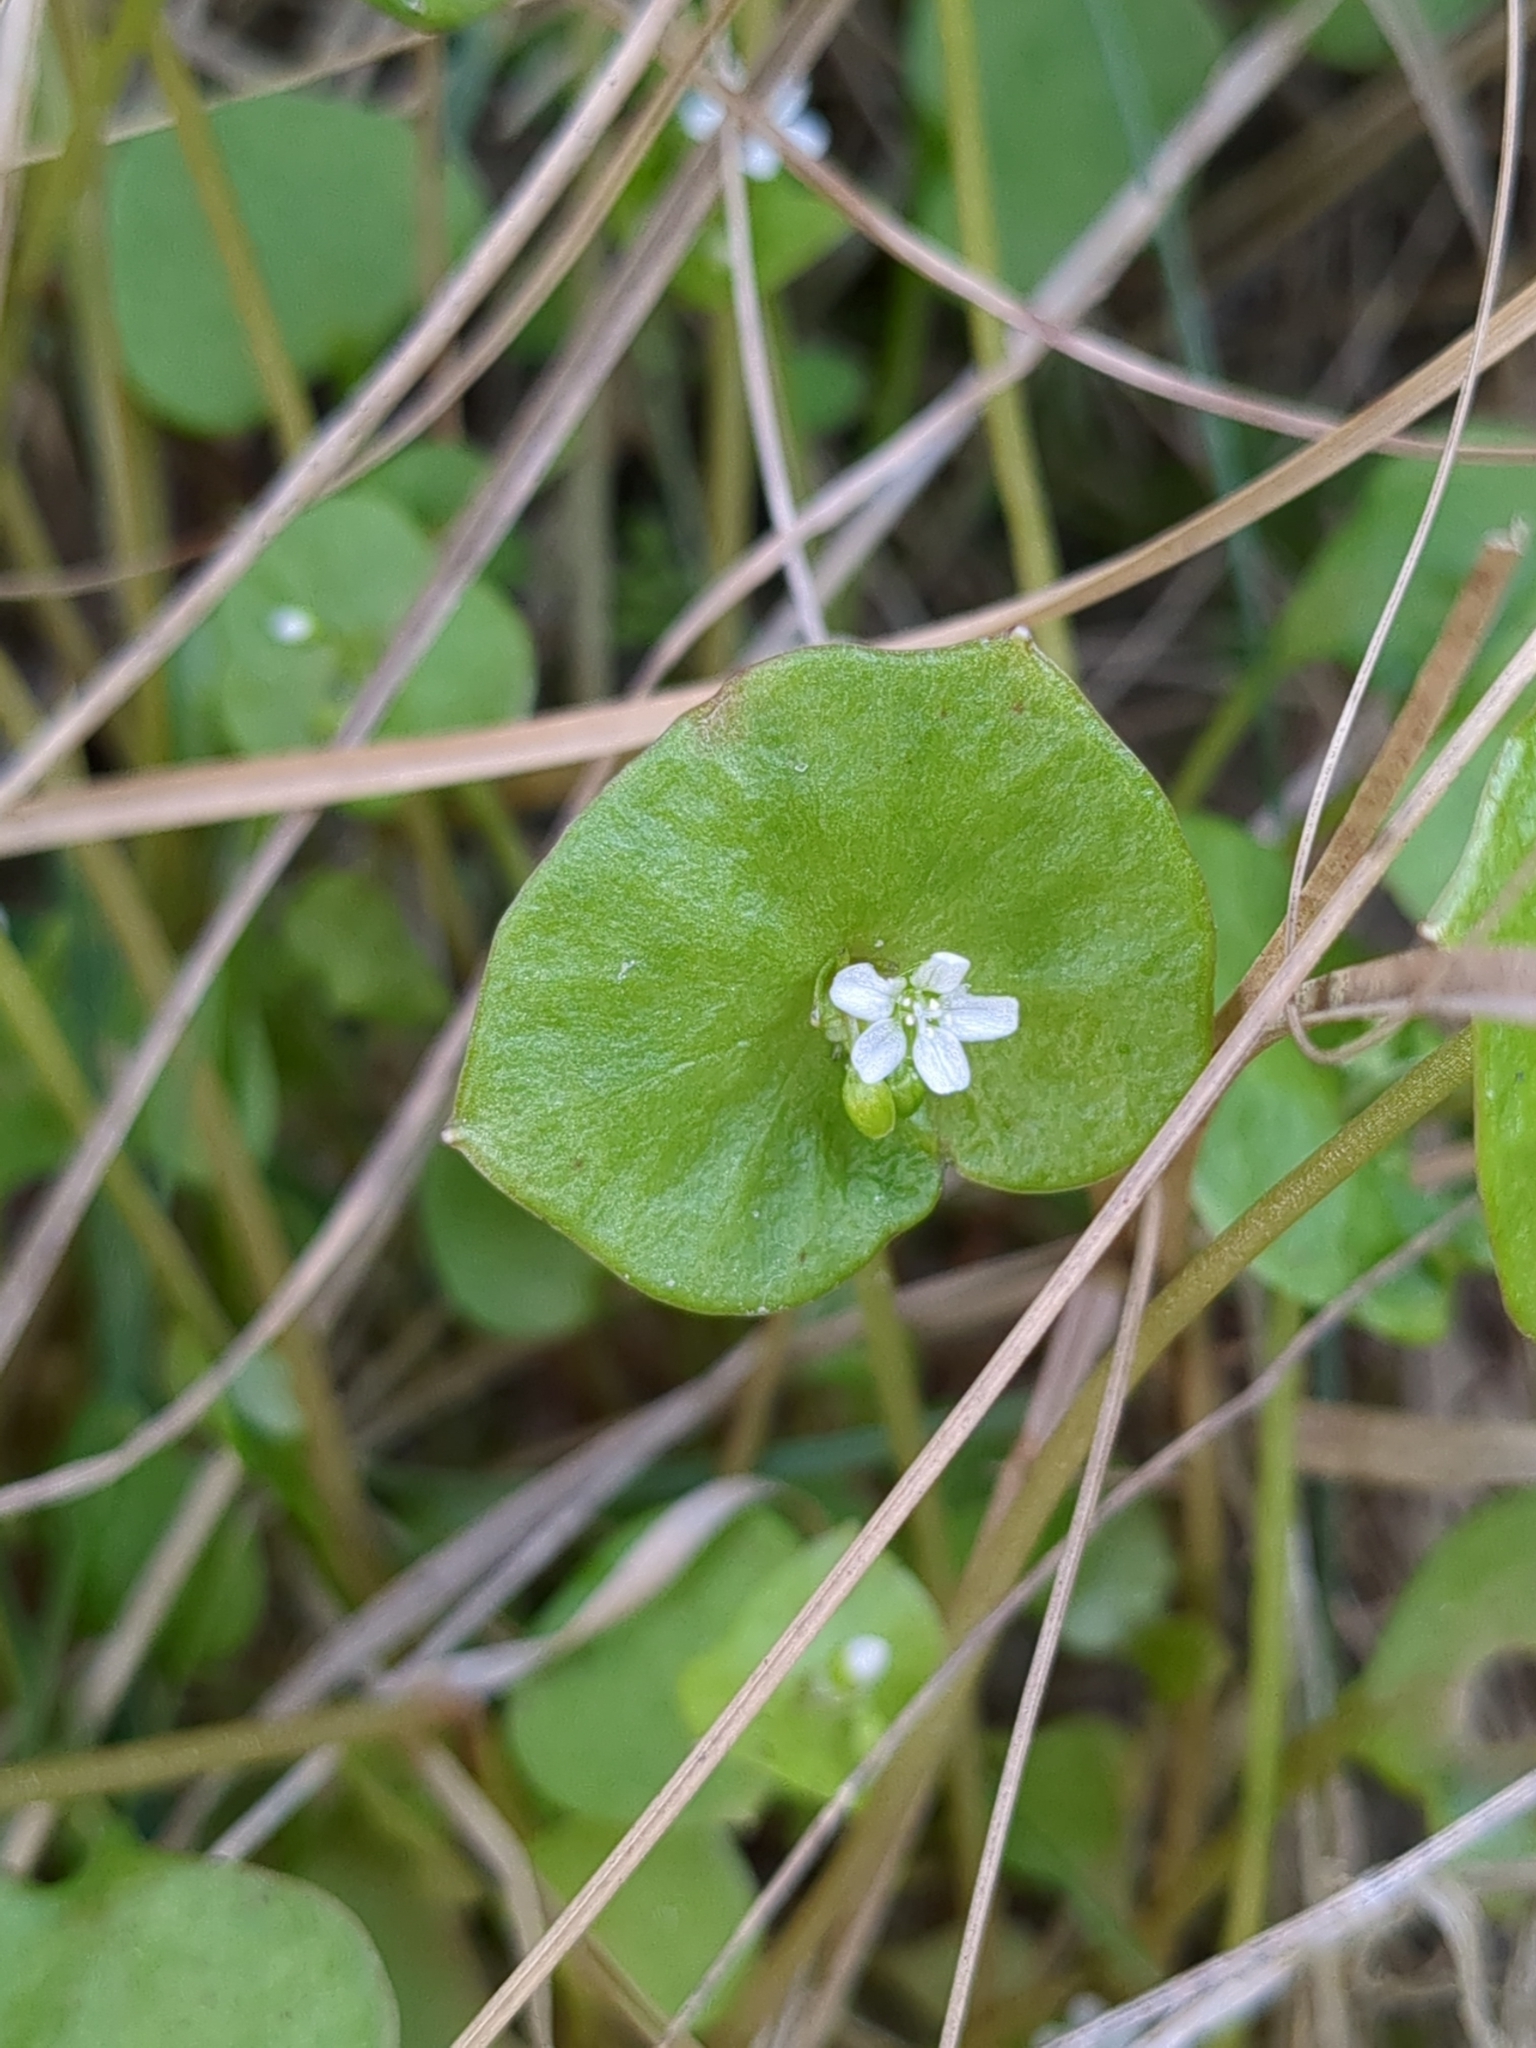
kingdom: Plantae
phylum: Tracheophyta
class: Magnoliopsida
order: Caryophyllales
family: Montiaceae
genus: Claytonia
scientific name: Claytonia perfoliata
